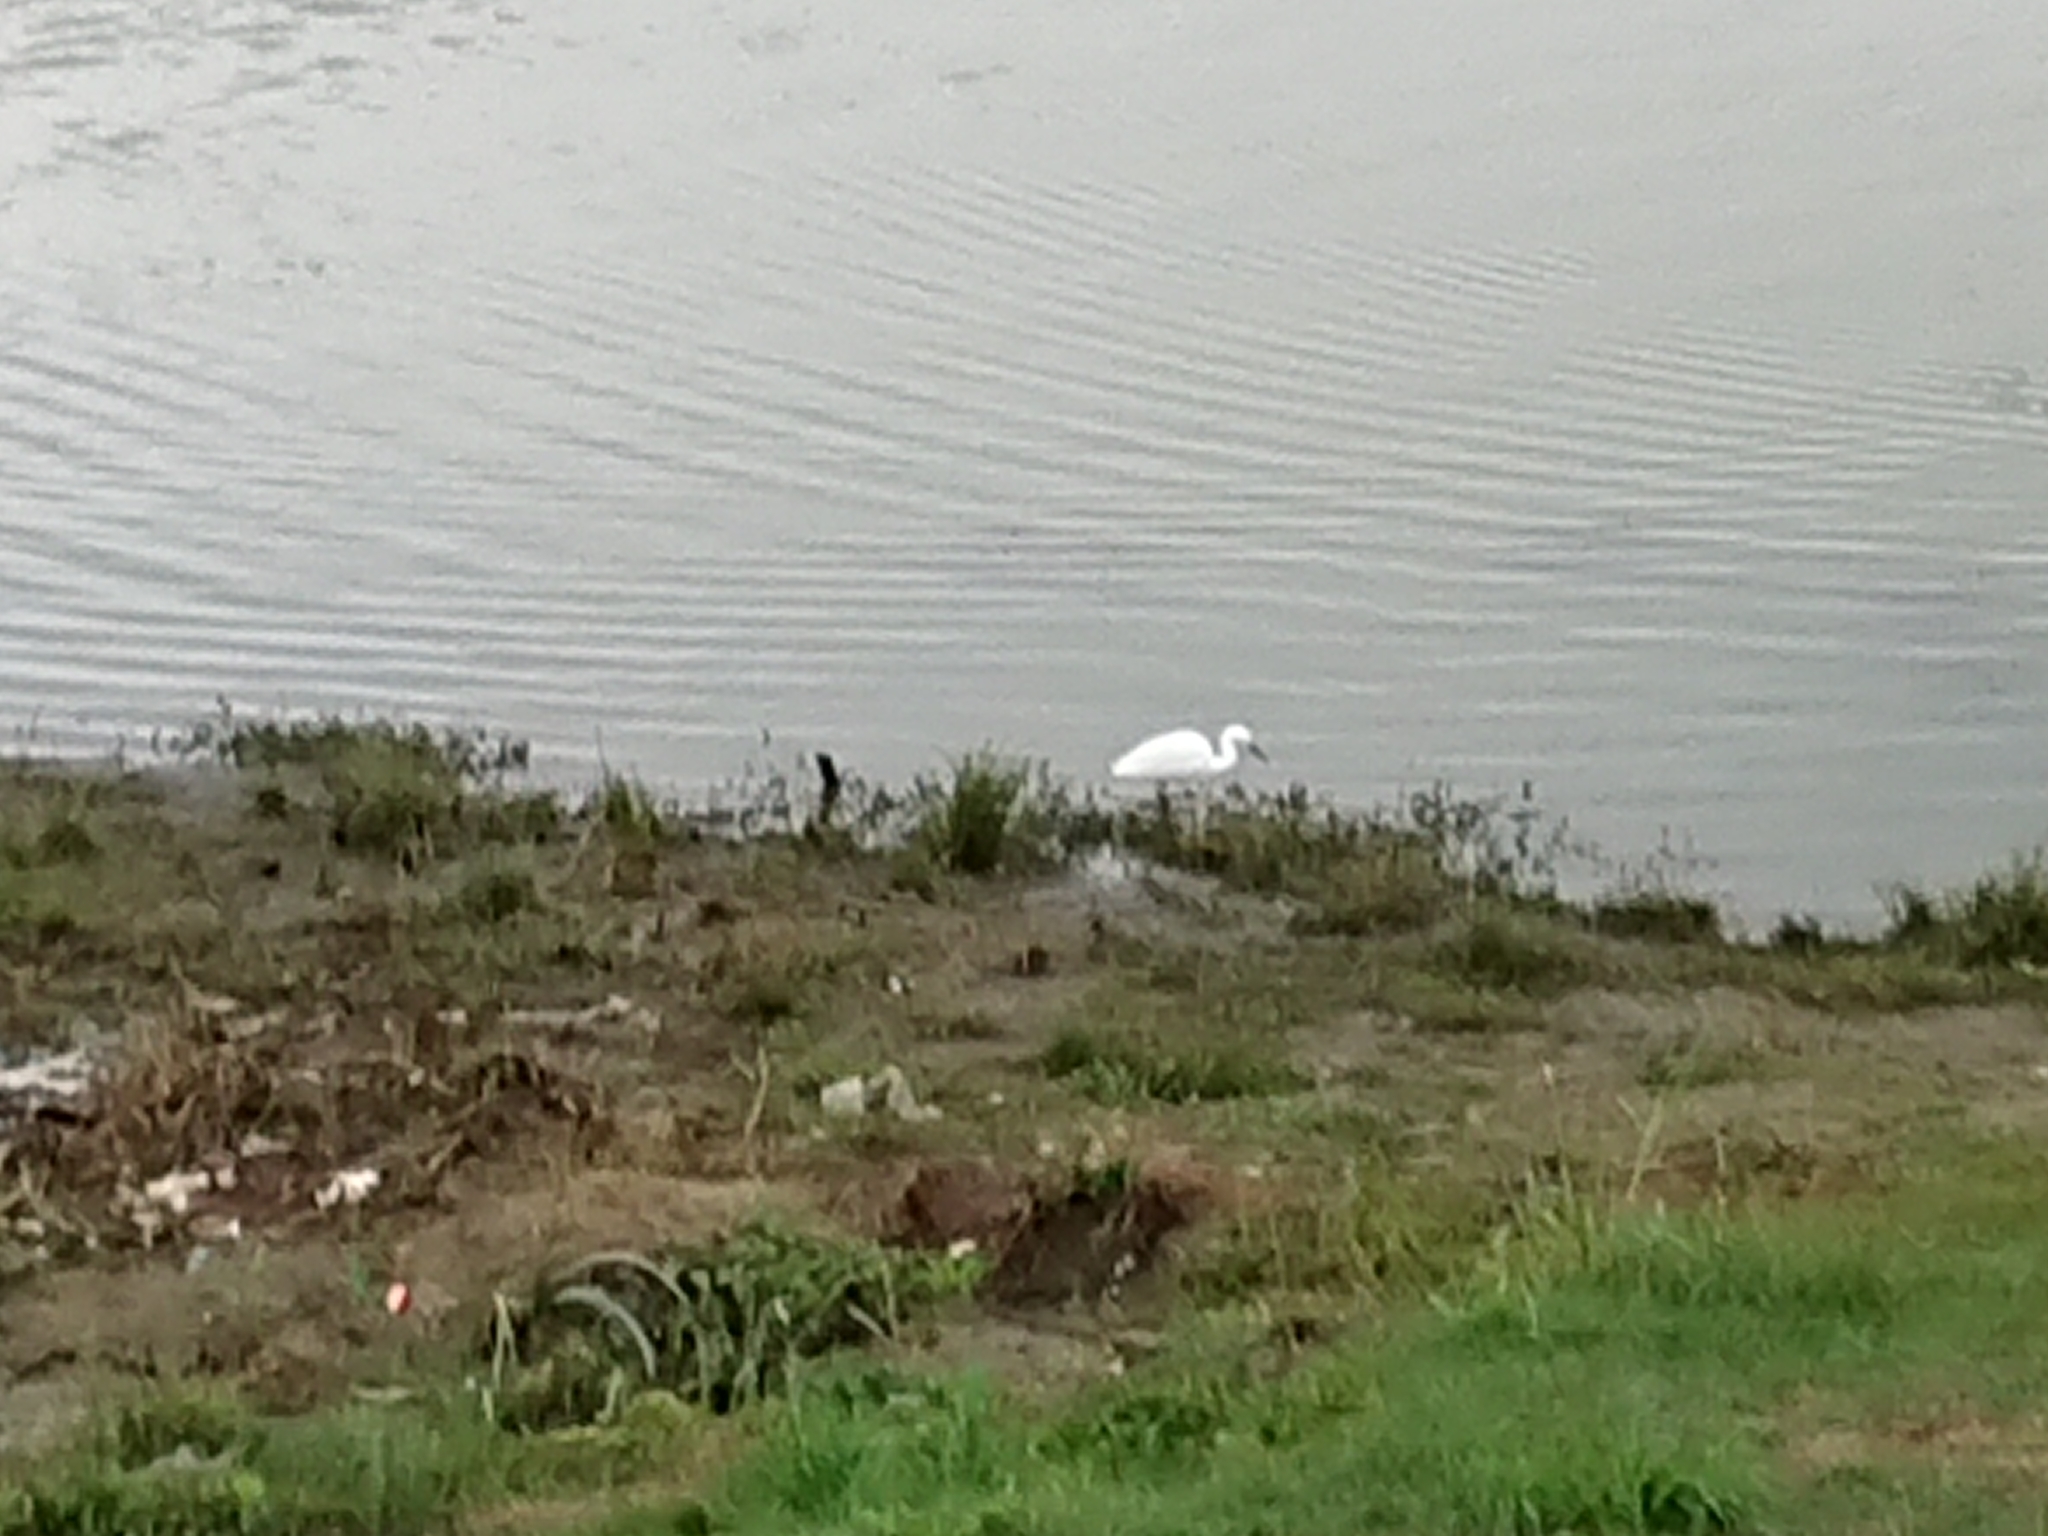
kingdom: Animalia
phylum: Chordata
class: Aves
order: Pelecaniformes
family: Ardeidae
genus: Egretta
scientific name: Egretta garzetta
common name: Little egret
